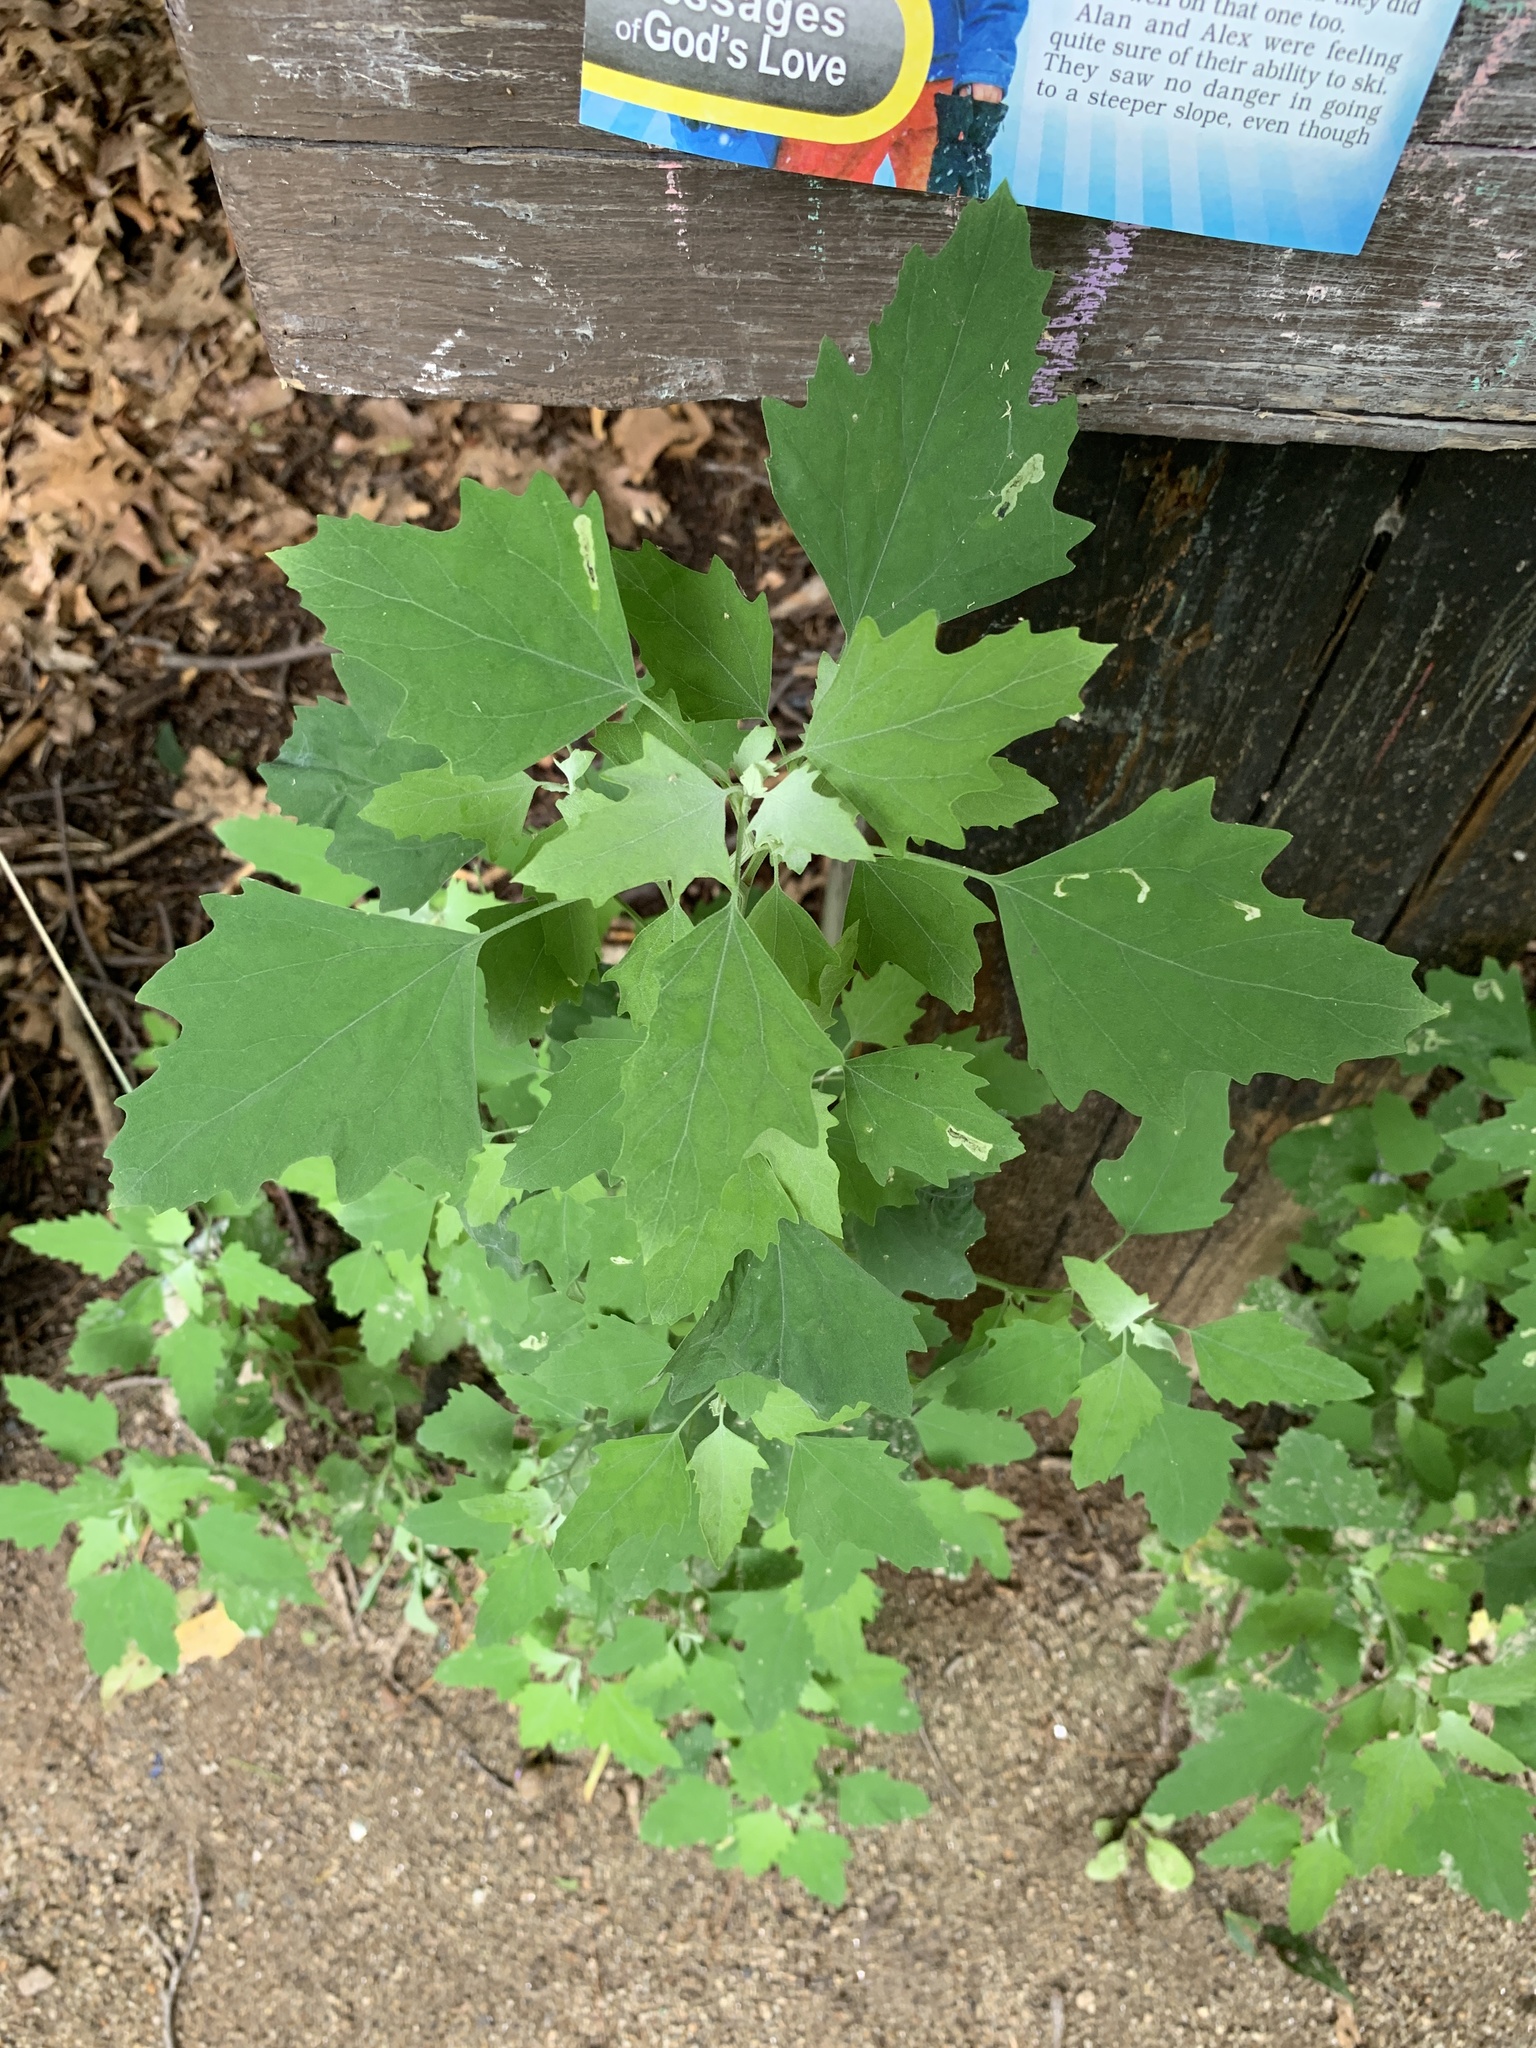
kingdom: Plantae
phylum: Tracheophyta
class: Magnoliopsida
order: Caryophyllales
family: Amaranthaceae
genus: Chenopodium
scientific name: Chenopodium album
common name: Fat-hen
